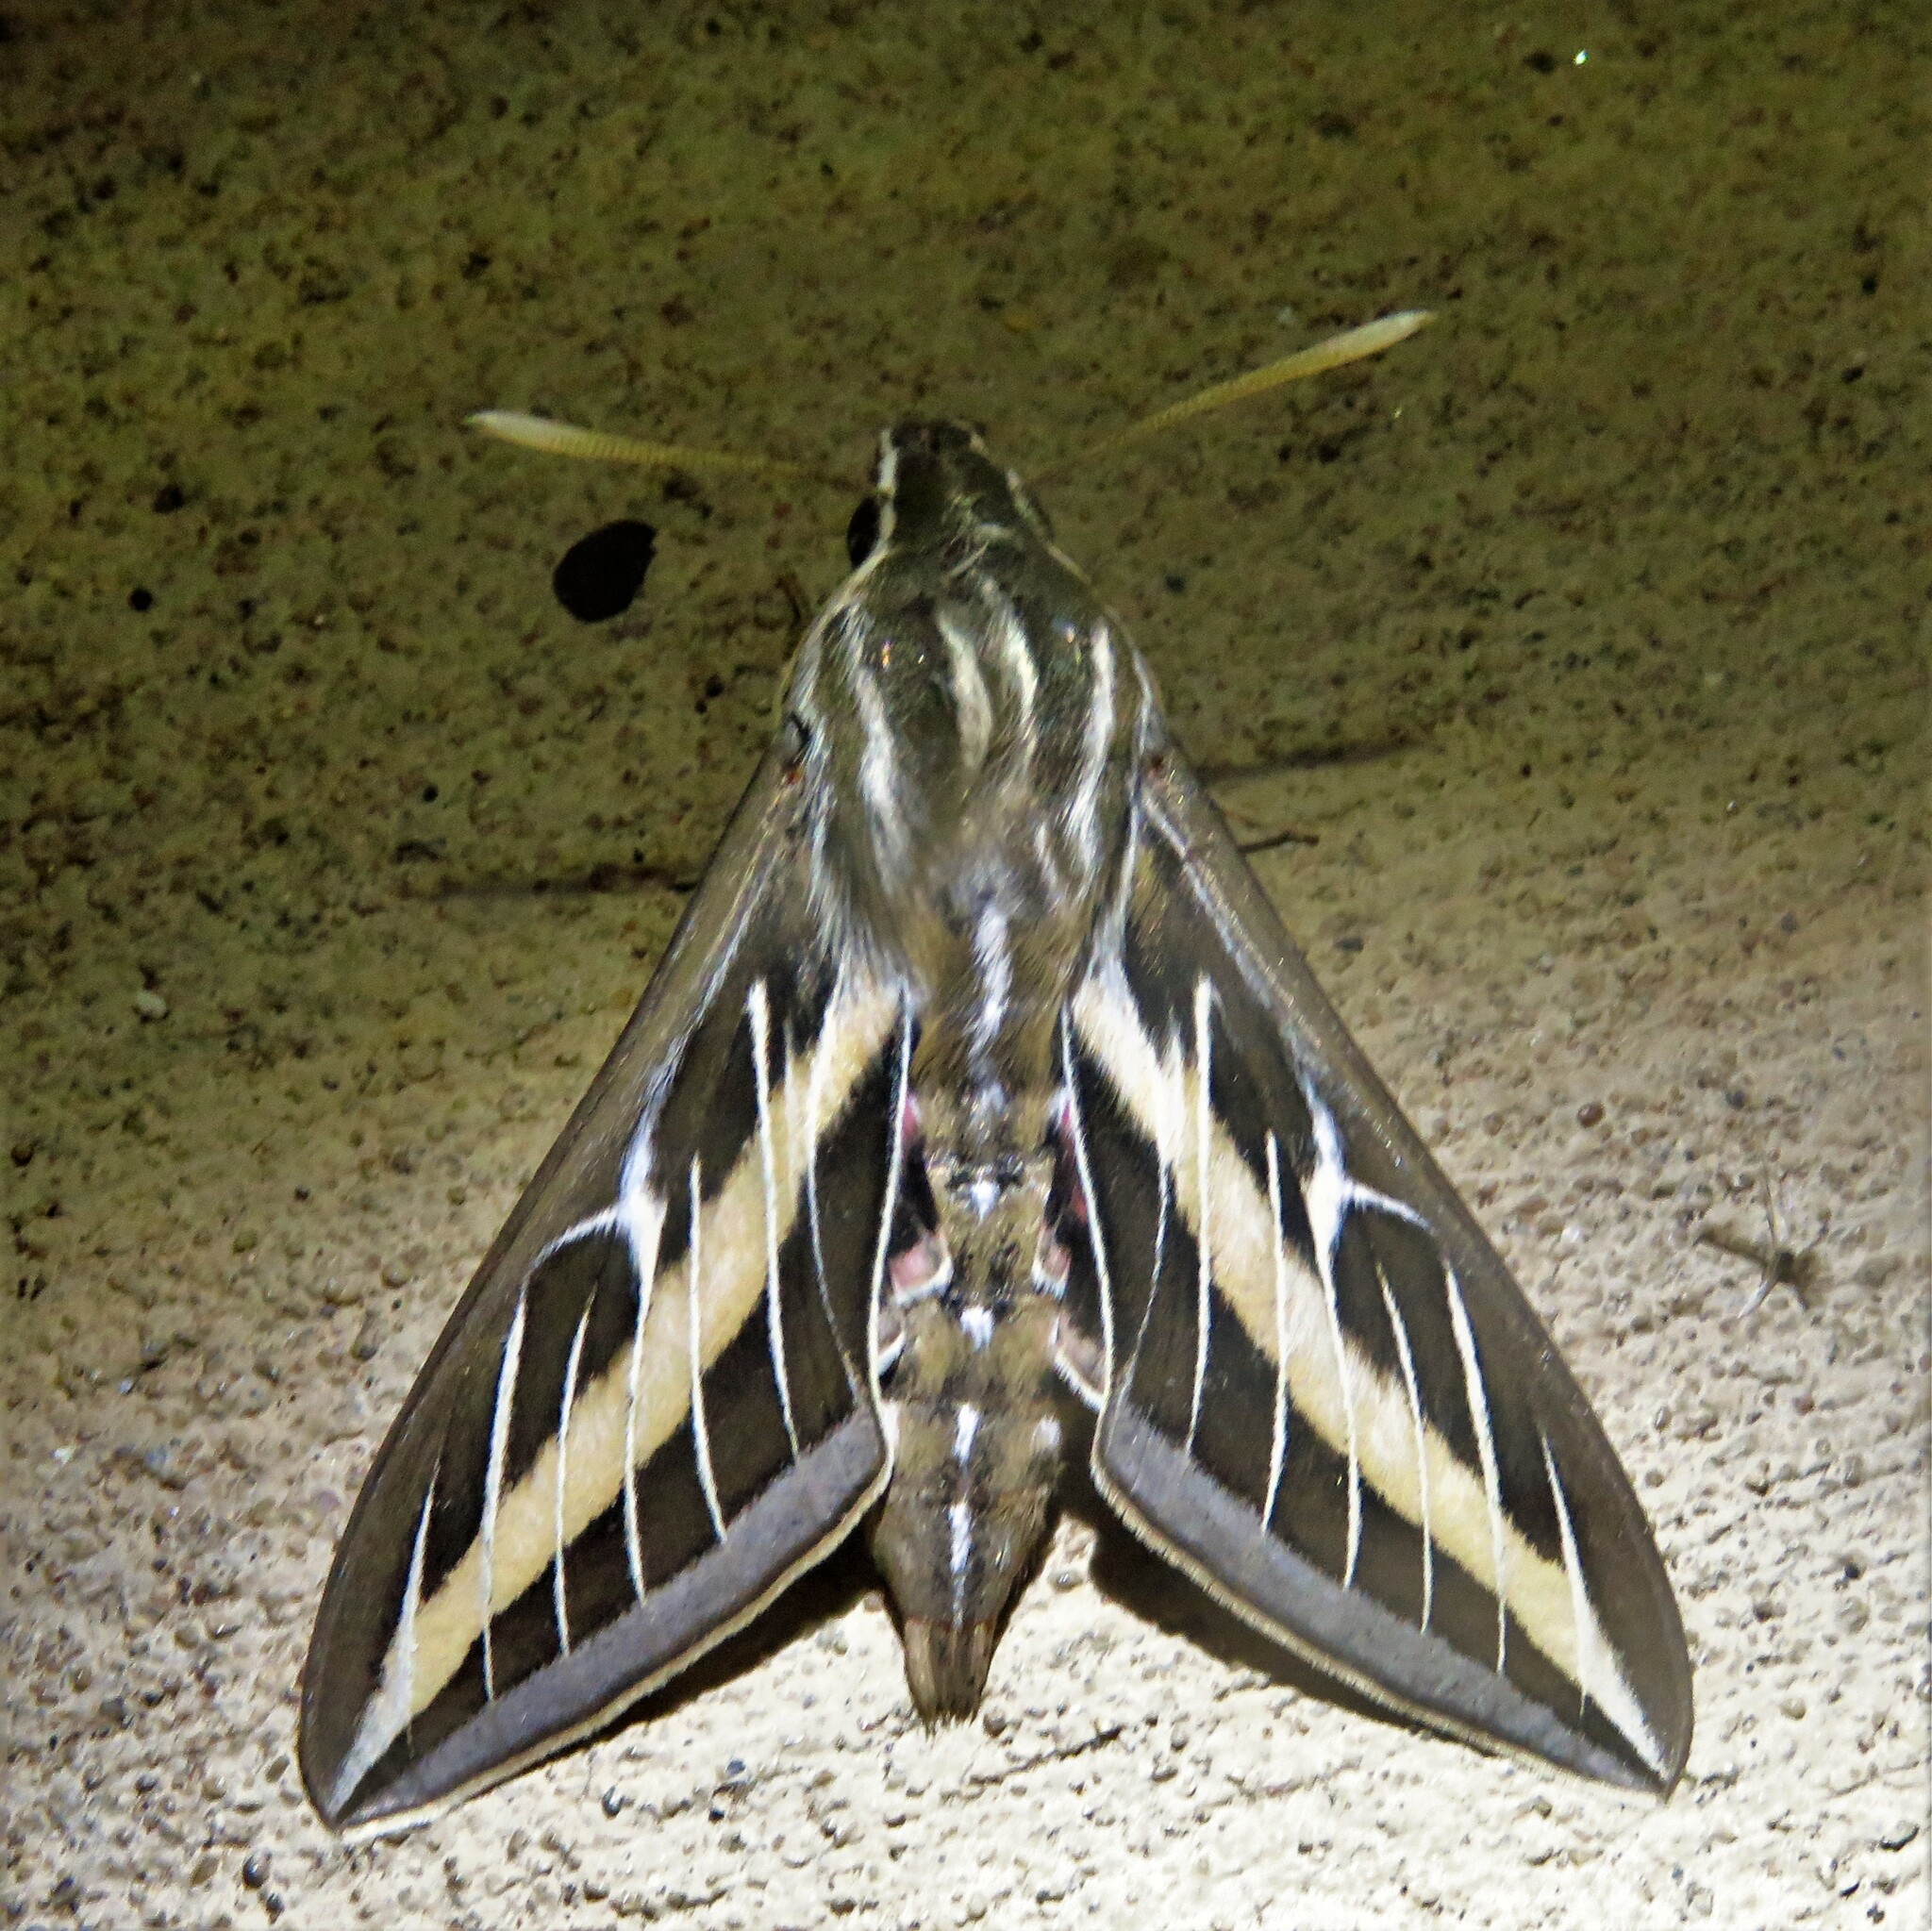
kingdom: Animalia
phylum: Arthropoda
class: Insecta
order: Lepidoptera
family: Sphingidae
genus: Hyles
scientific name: Hyles lineata
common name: White-lined sphinx
